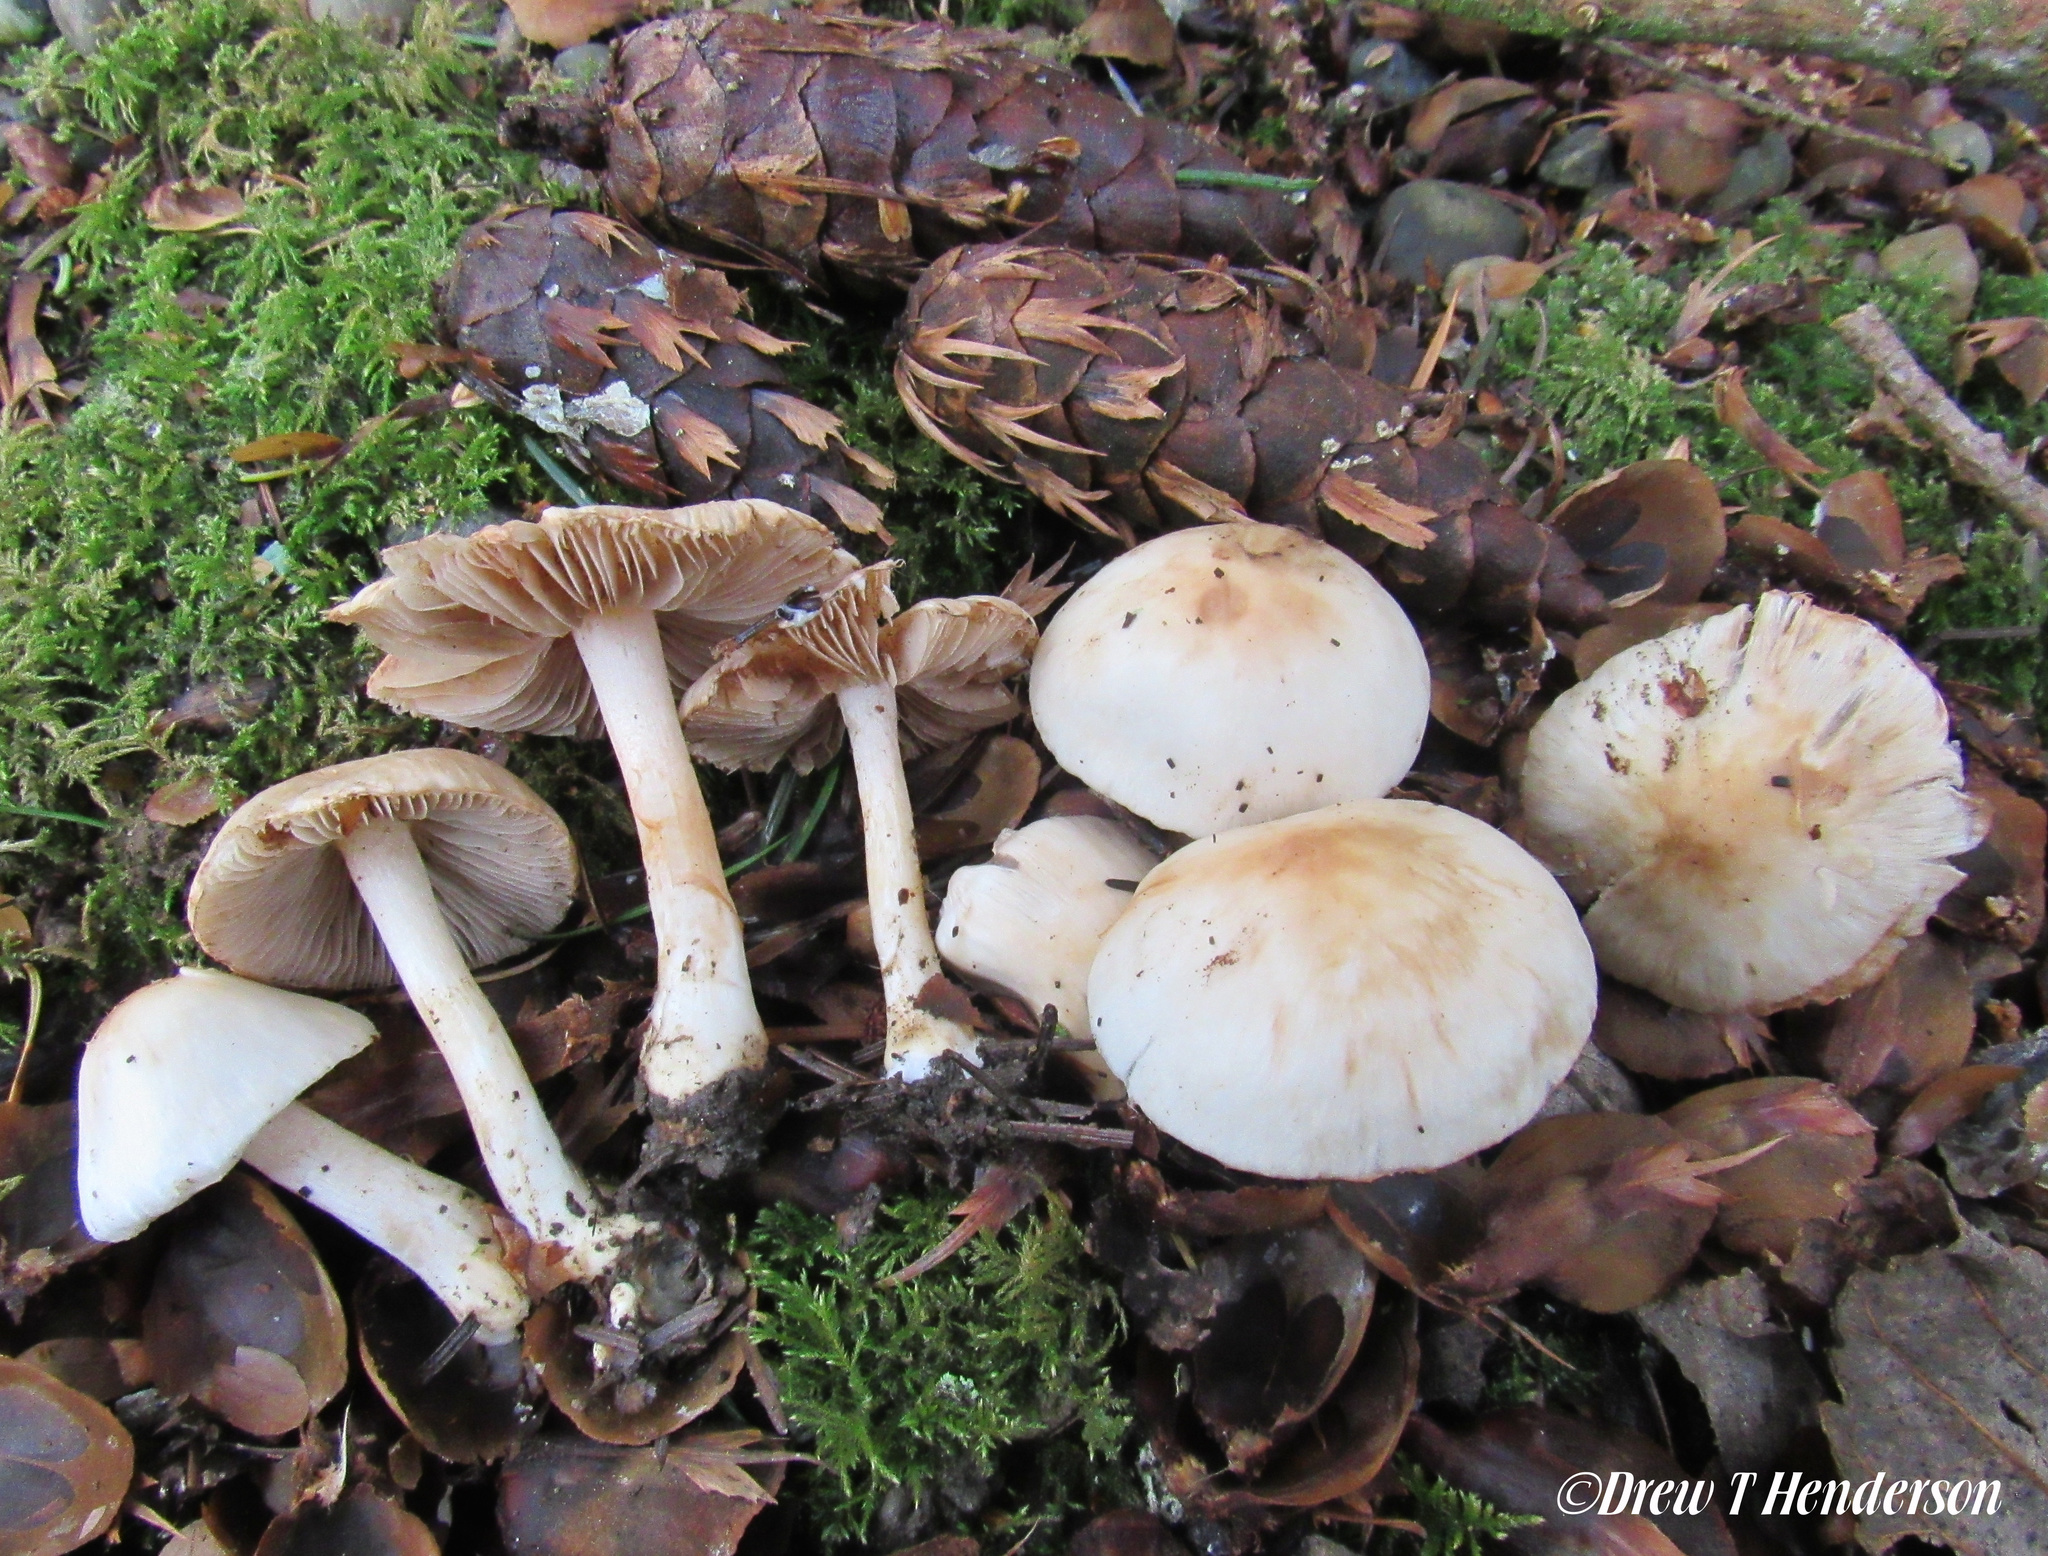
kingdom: Fungi
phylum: Basidiomycota
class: Agaricomycetes
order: Agaricales
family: Inocybaceae
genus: Inocybe
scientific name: Inocybe whitei
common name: Blushing fibrecap
